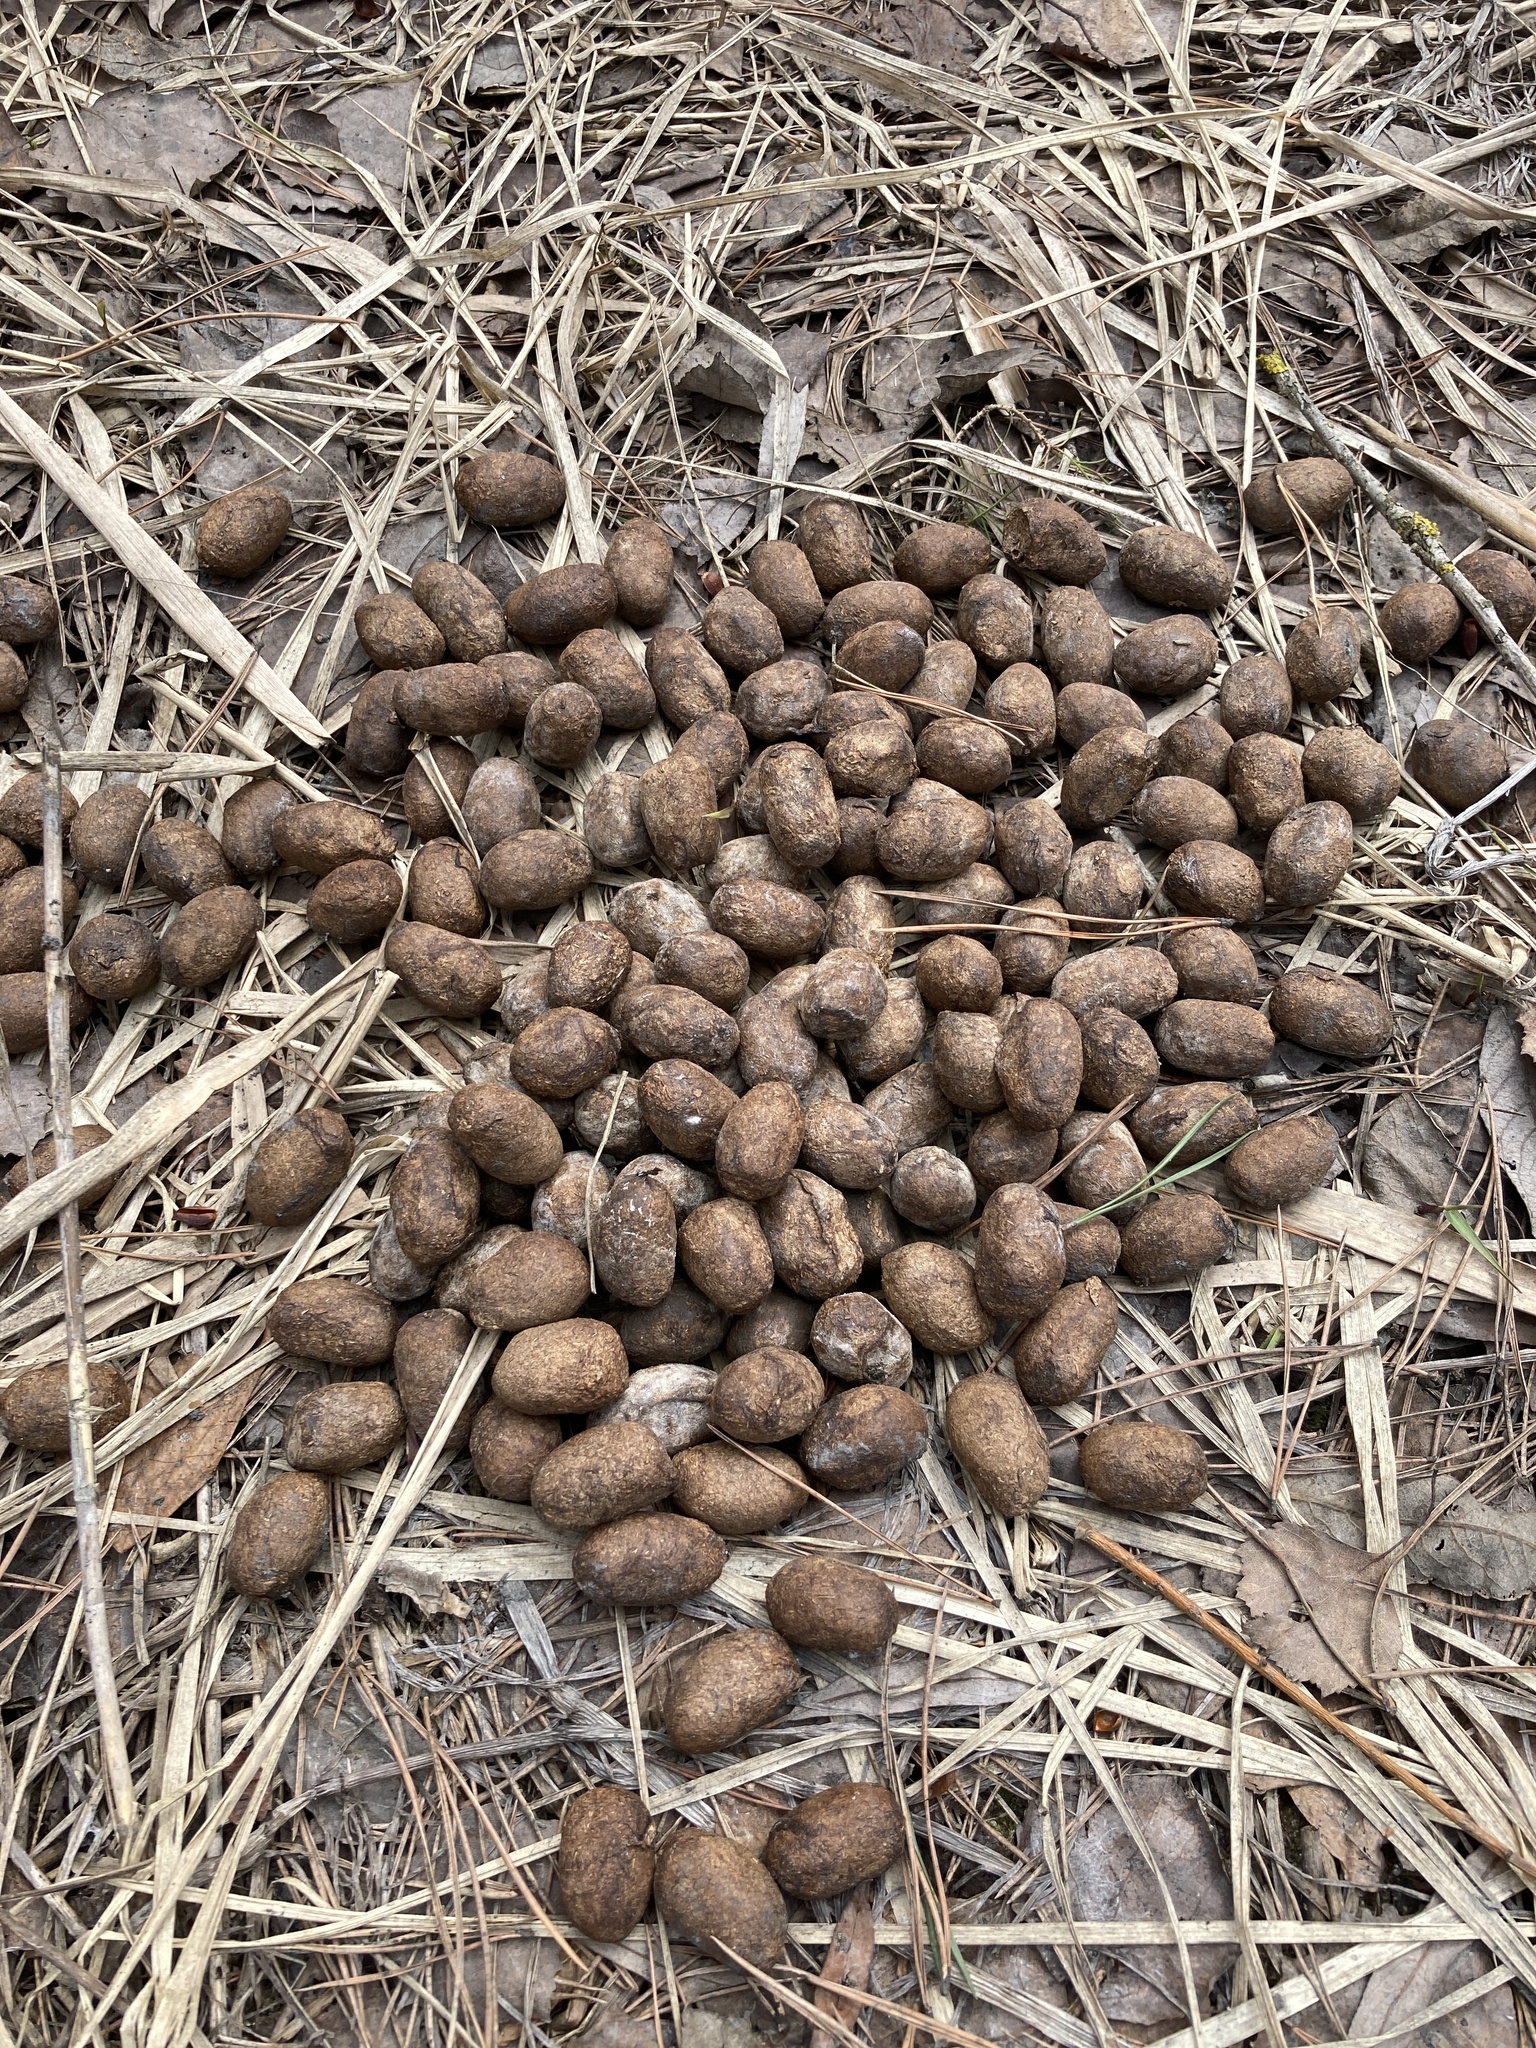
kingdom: Animalia
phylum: Chordata
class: Mammalia
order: Artiodactyla
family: Cervidae
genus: Alces
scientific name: Alces alces
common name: Moose
